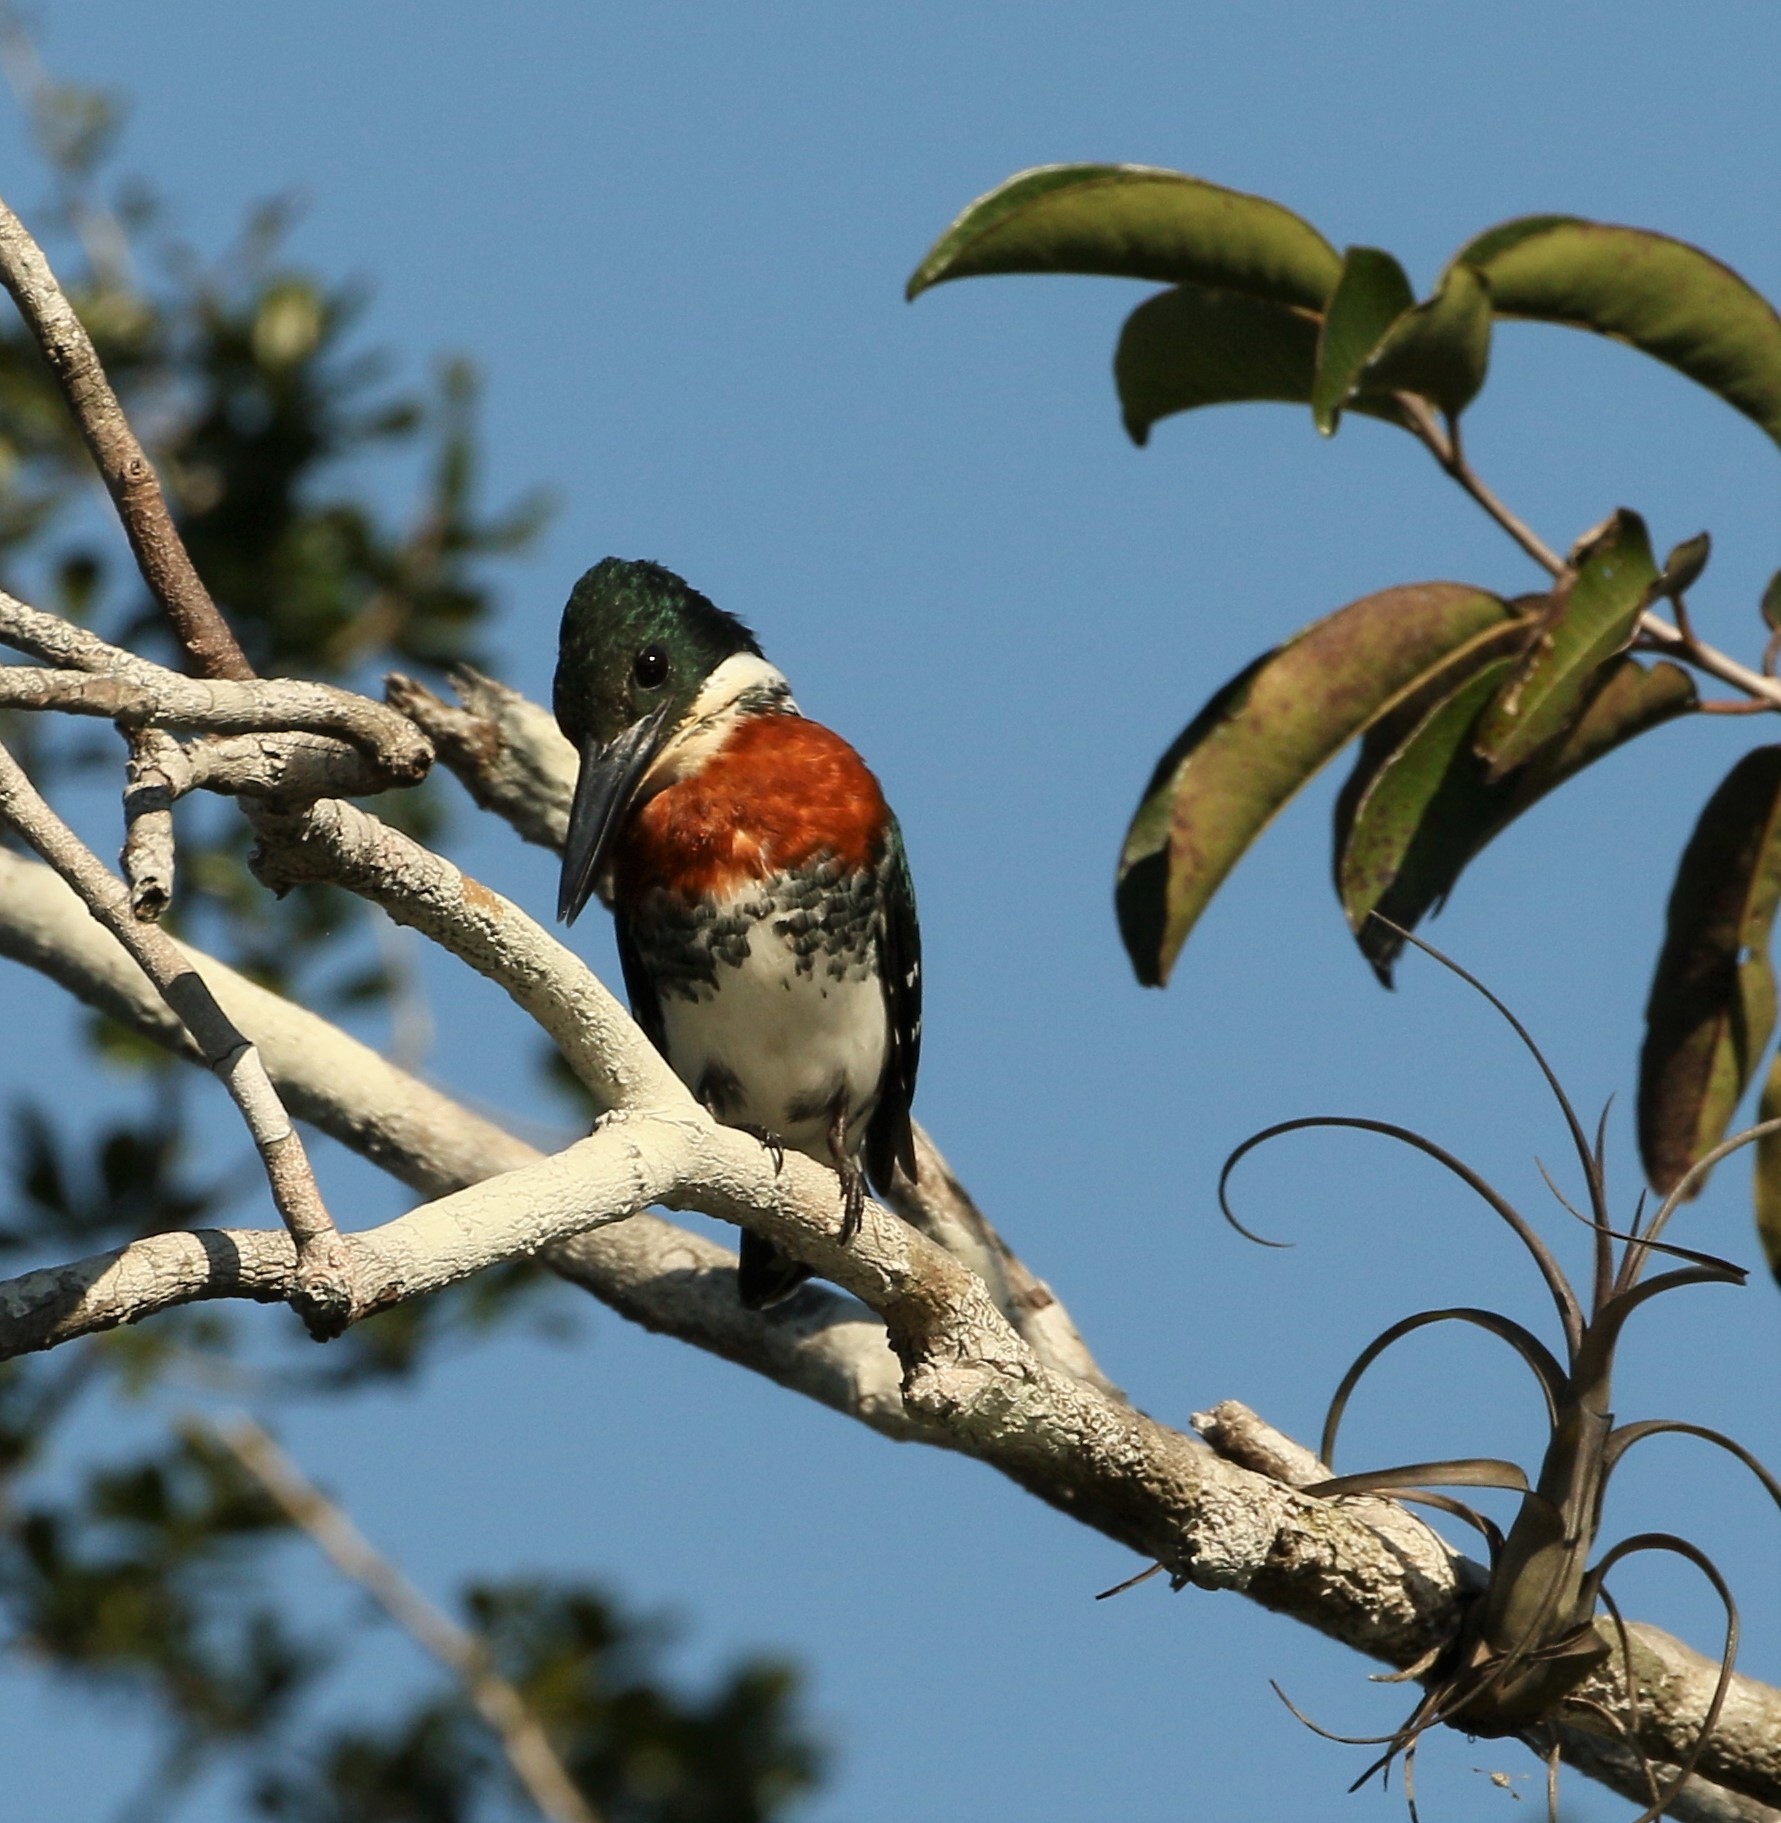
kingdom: Animalia
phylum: Chordata
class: Aves
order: Coraciiformes
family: Alcedinidae
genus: Chloroceryle
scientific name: Chloroceryle americana
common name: Green kingfisher
